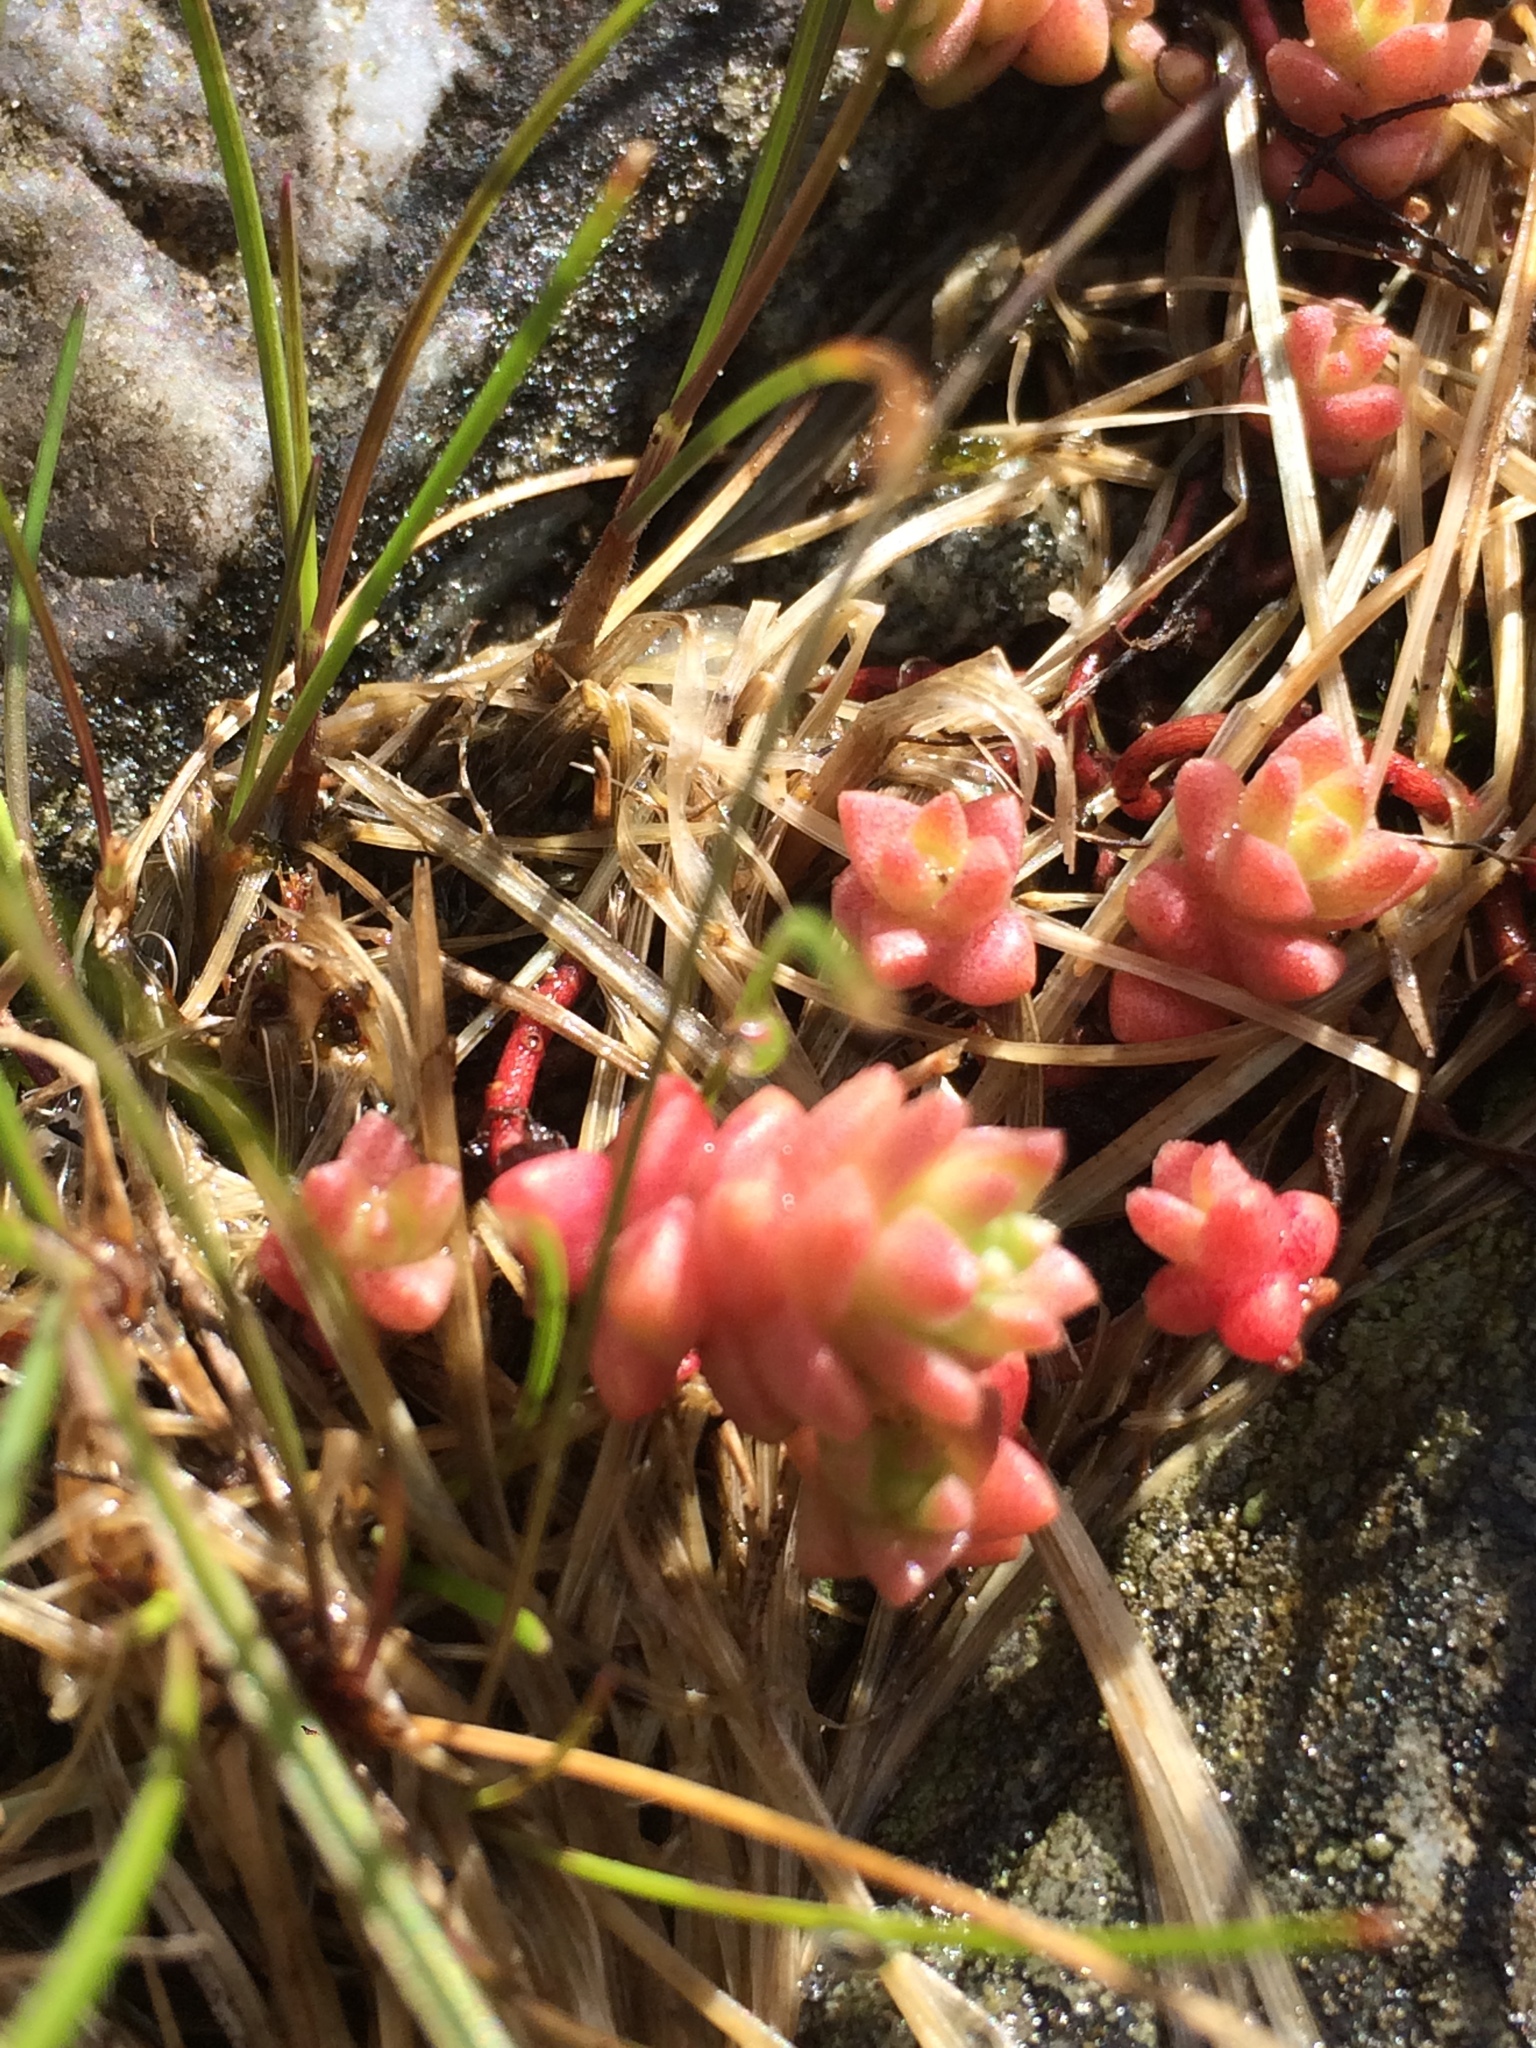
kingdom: Plantae
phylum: Tracheophyta
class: Magnoliopsida
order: Saxifragales
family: Crassulaceae
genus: Sedum
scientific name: Sedum anglicum
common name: English stonecrop
